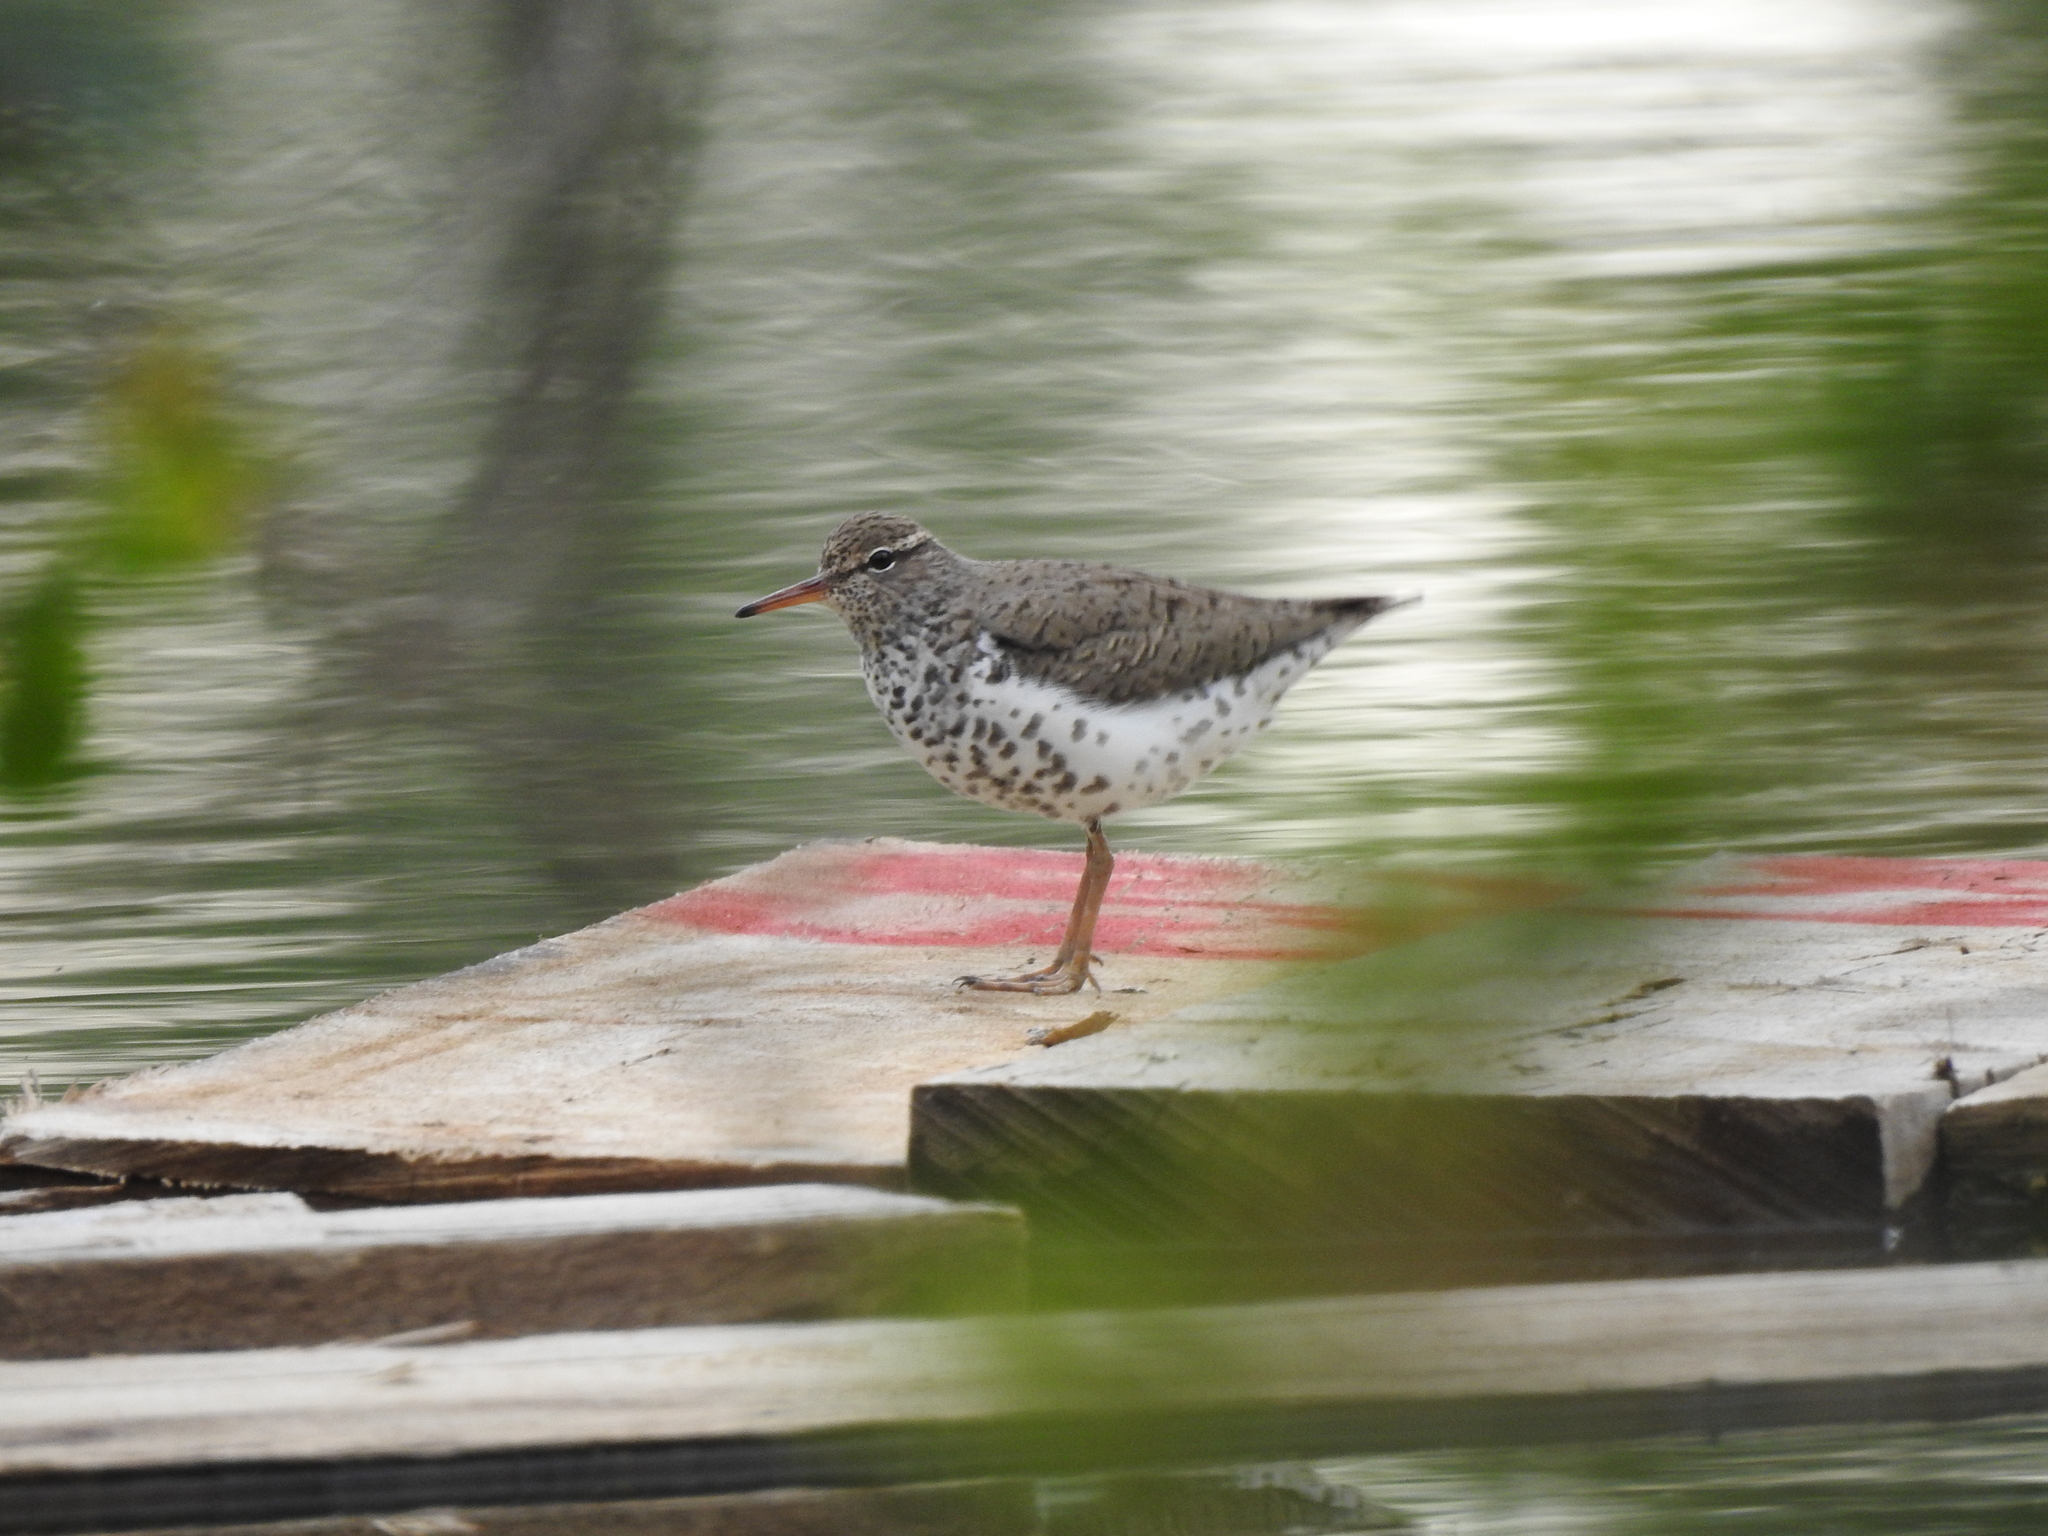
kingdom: Animalia
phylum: Chordata
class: Aves
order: Charadriiformes
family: Scolopacidae
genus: Actitis
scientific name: Actitis macularius
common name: Spotted sandpiper
